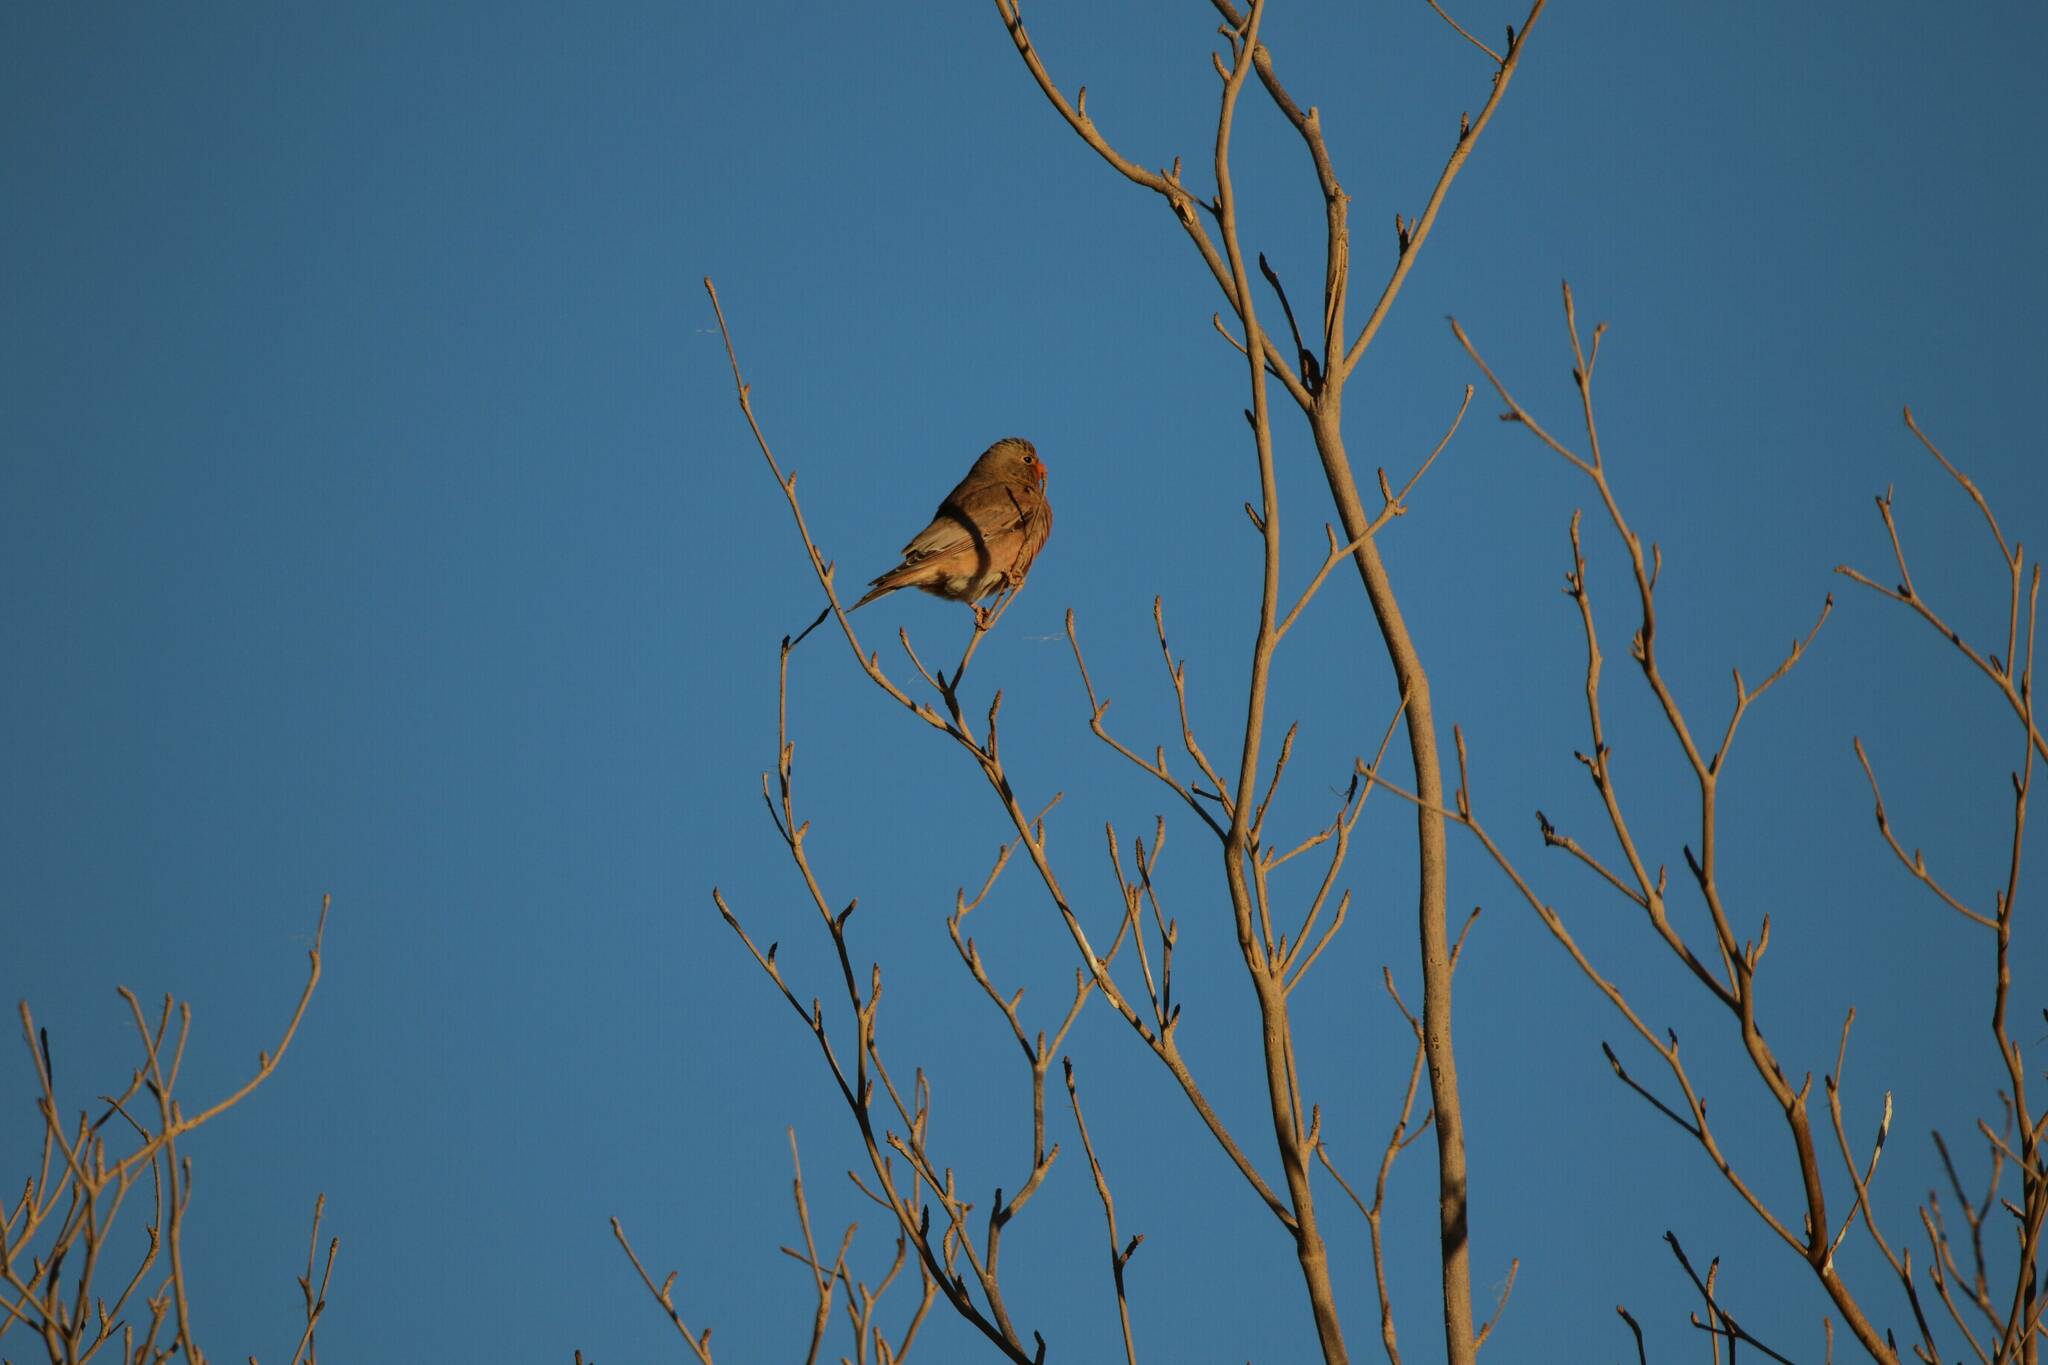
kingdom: Animalia
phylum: Chordata
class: Aves
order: Passeriformes
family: Fringillidae
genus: Bucanetes
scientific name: Bucanetes githagineus
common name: Trumpeter finch
